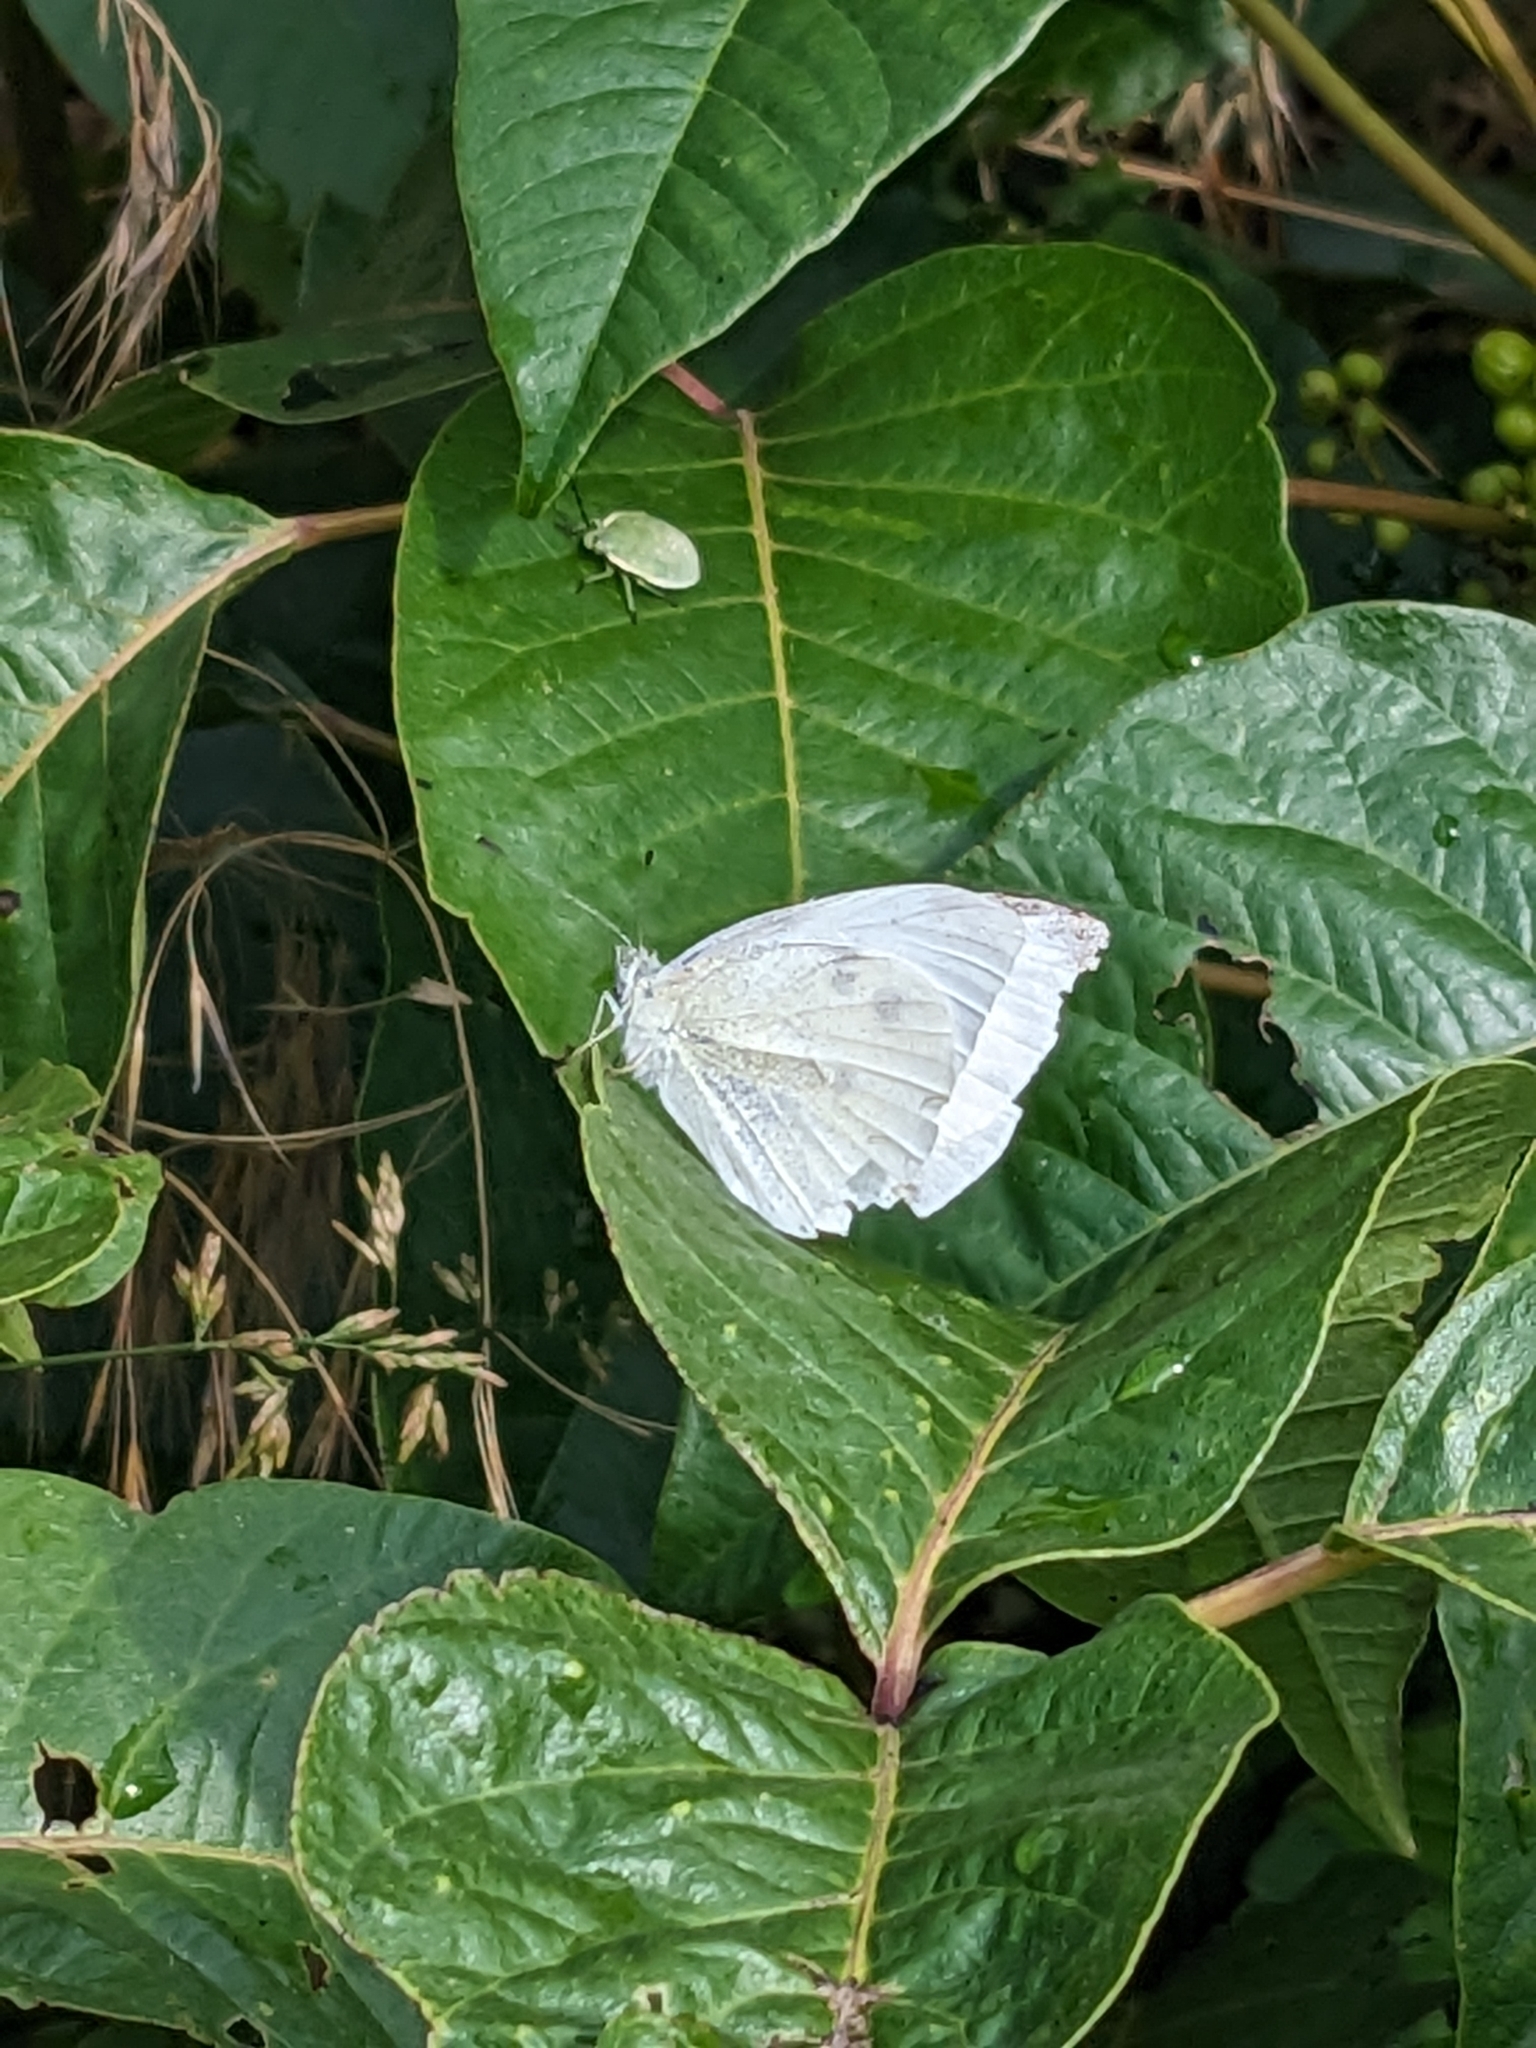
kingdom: Animalia
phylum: Arthropoda
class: Insecta
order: Lepidoptera
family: Pieridae
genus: Pieris
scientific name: Pieris rapae
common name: Small white
